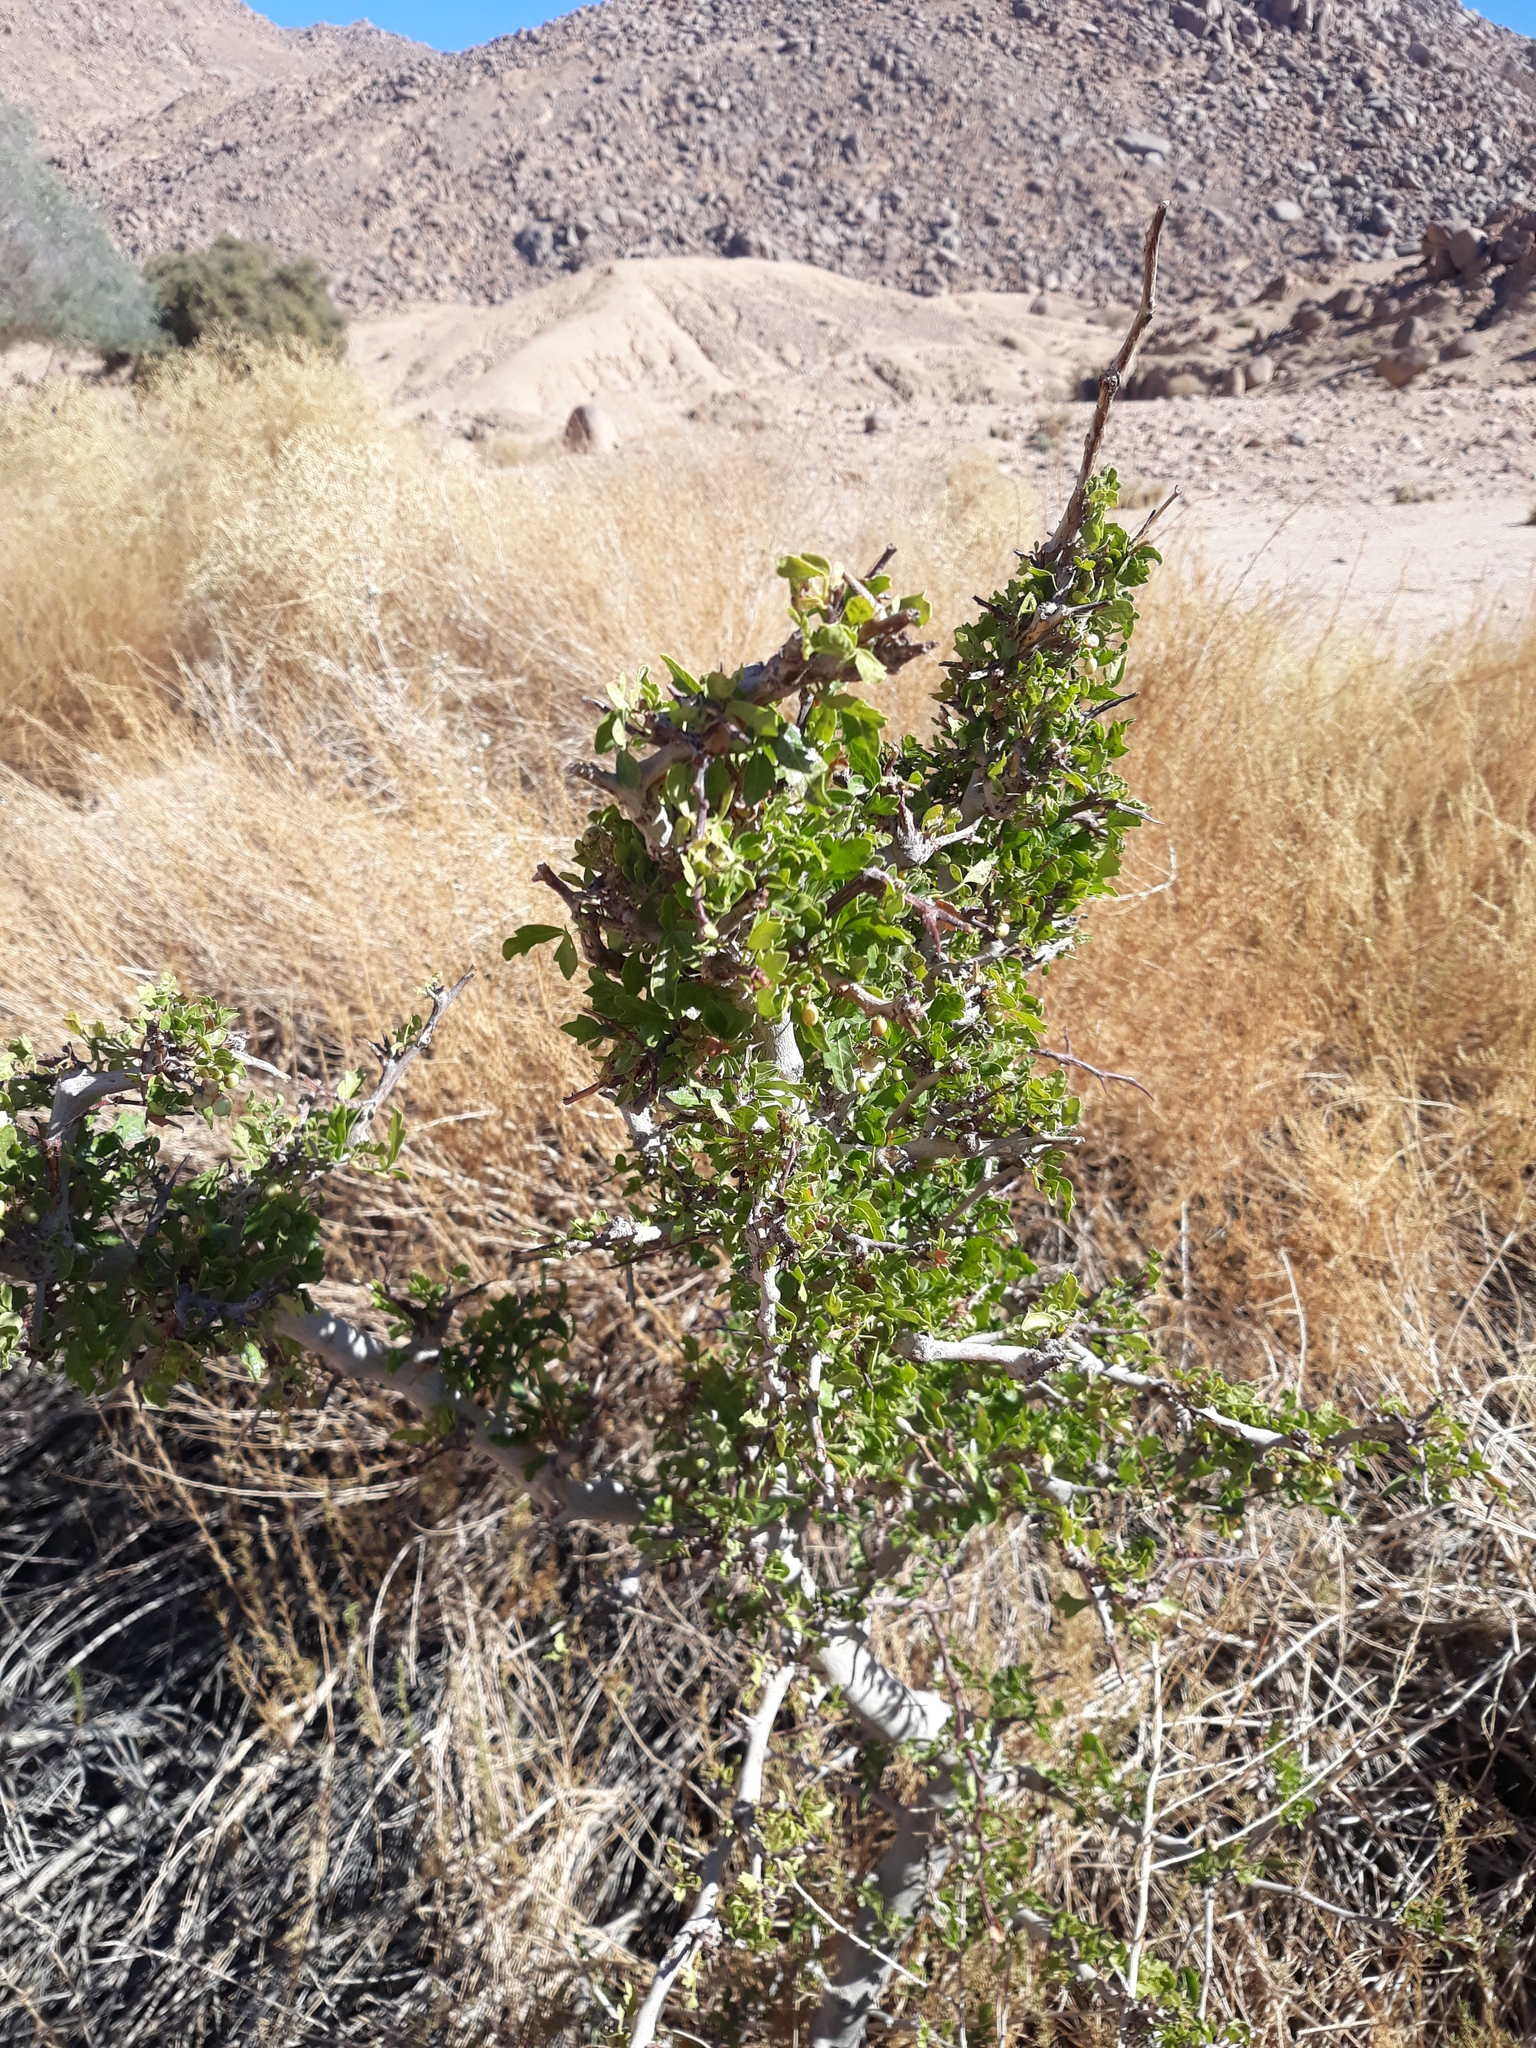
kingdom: Plantae
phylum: Tracheophyta
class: Magnoliopsida
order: Sapindales
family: Anacardiaceae
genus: Searsia
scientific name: Searsia tripartita
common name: Tripartite sumac
